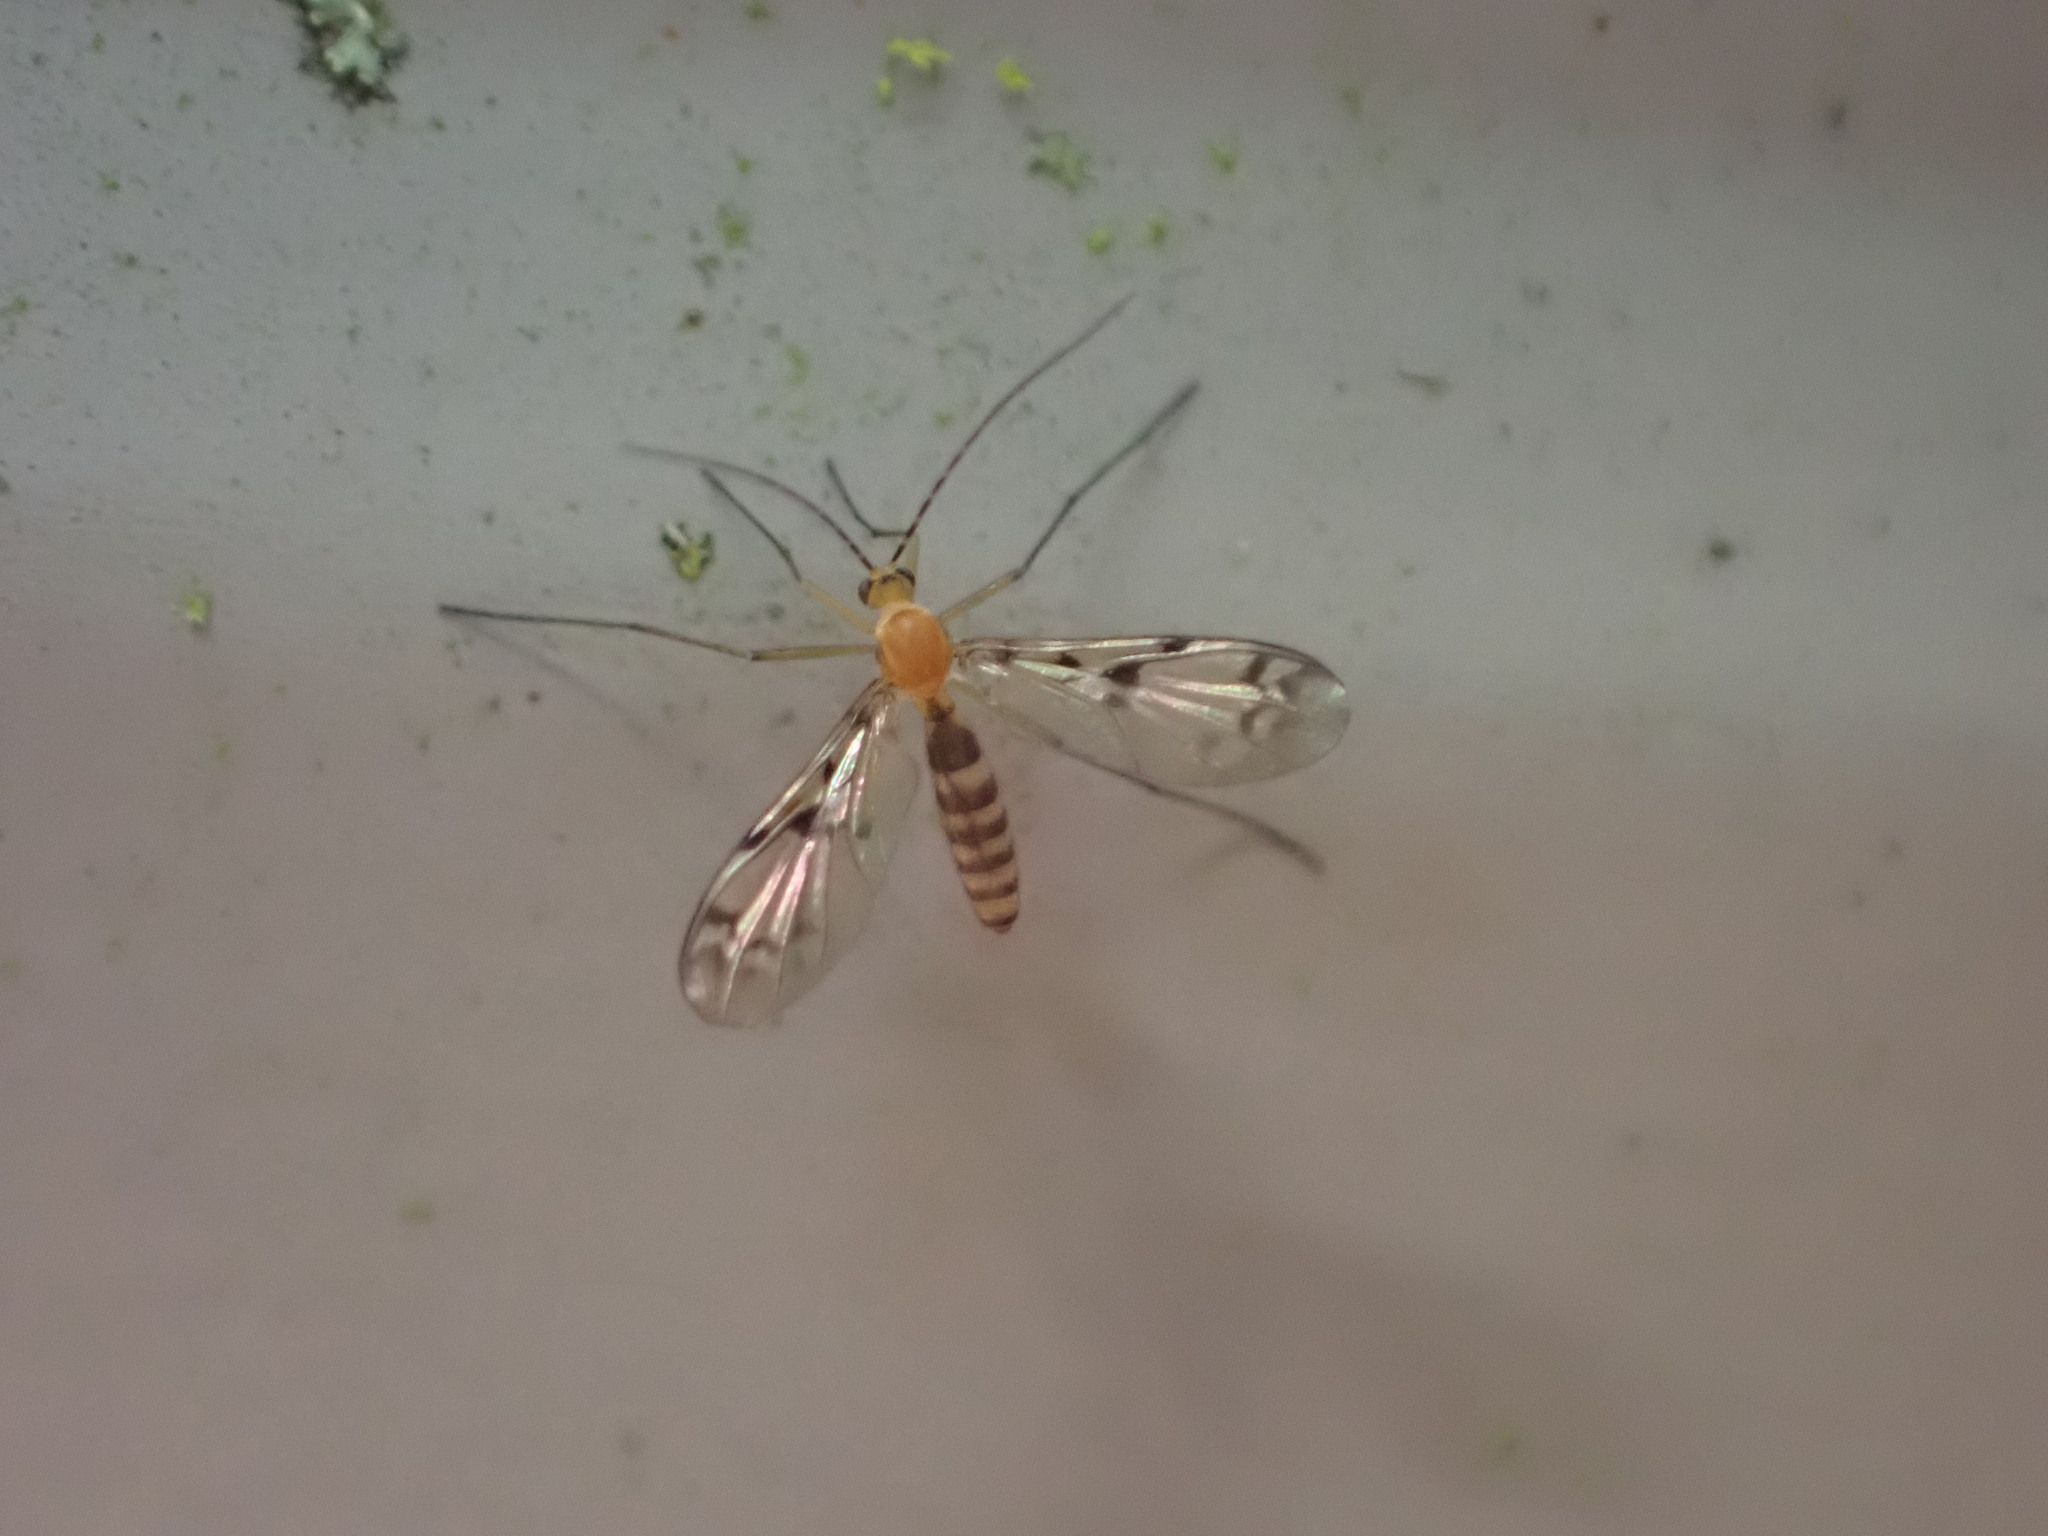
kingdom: Animalia
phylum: Arthropoda
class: Insecta
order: Diptera
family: Keroplatidae
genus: Chiasmoneura
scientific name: Chiasmoneura milligani
